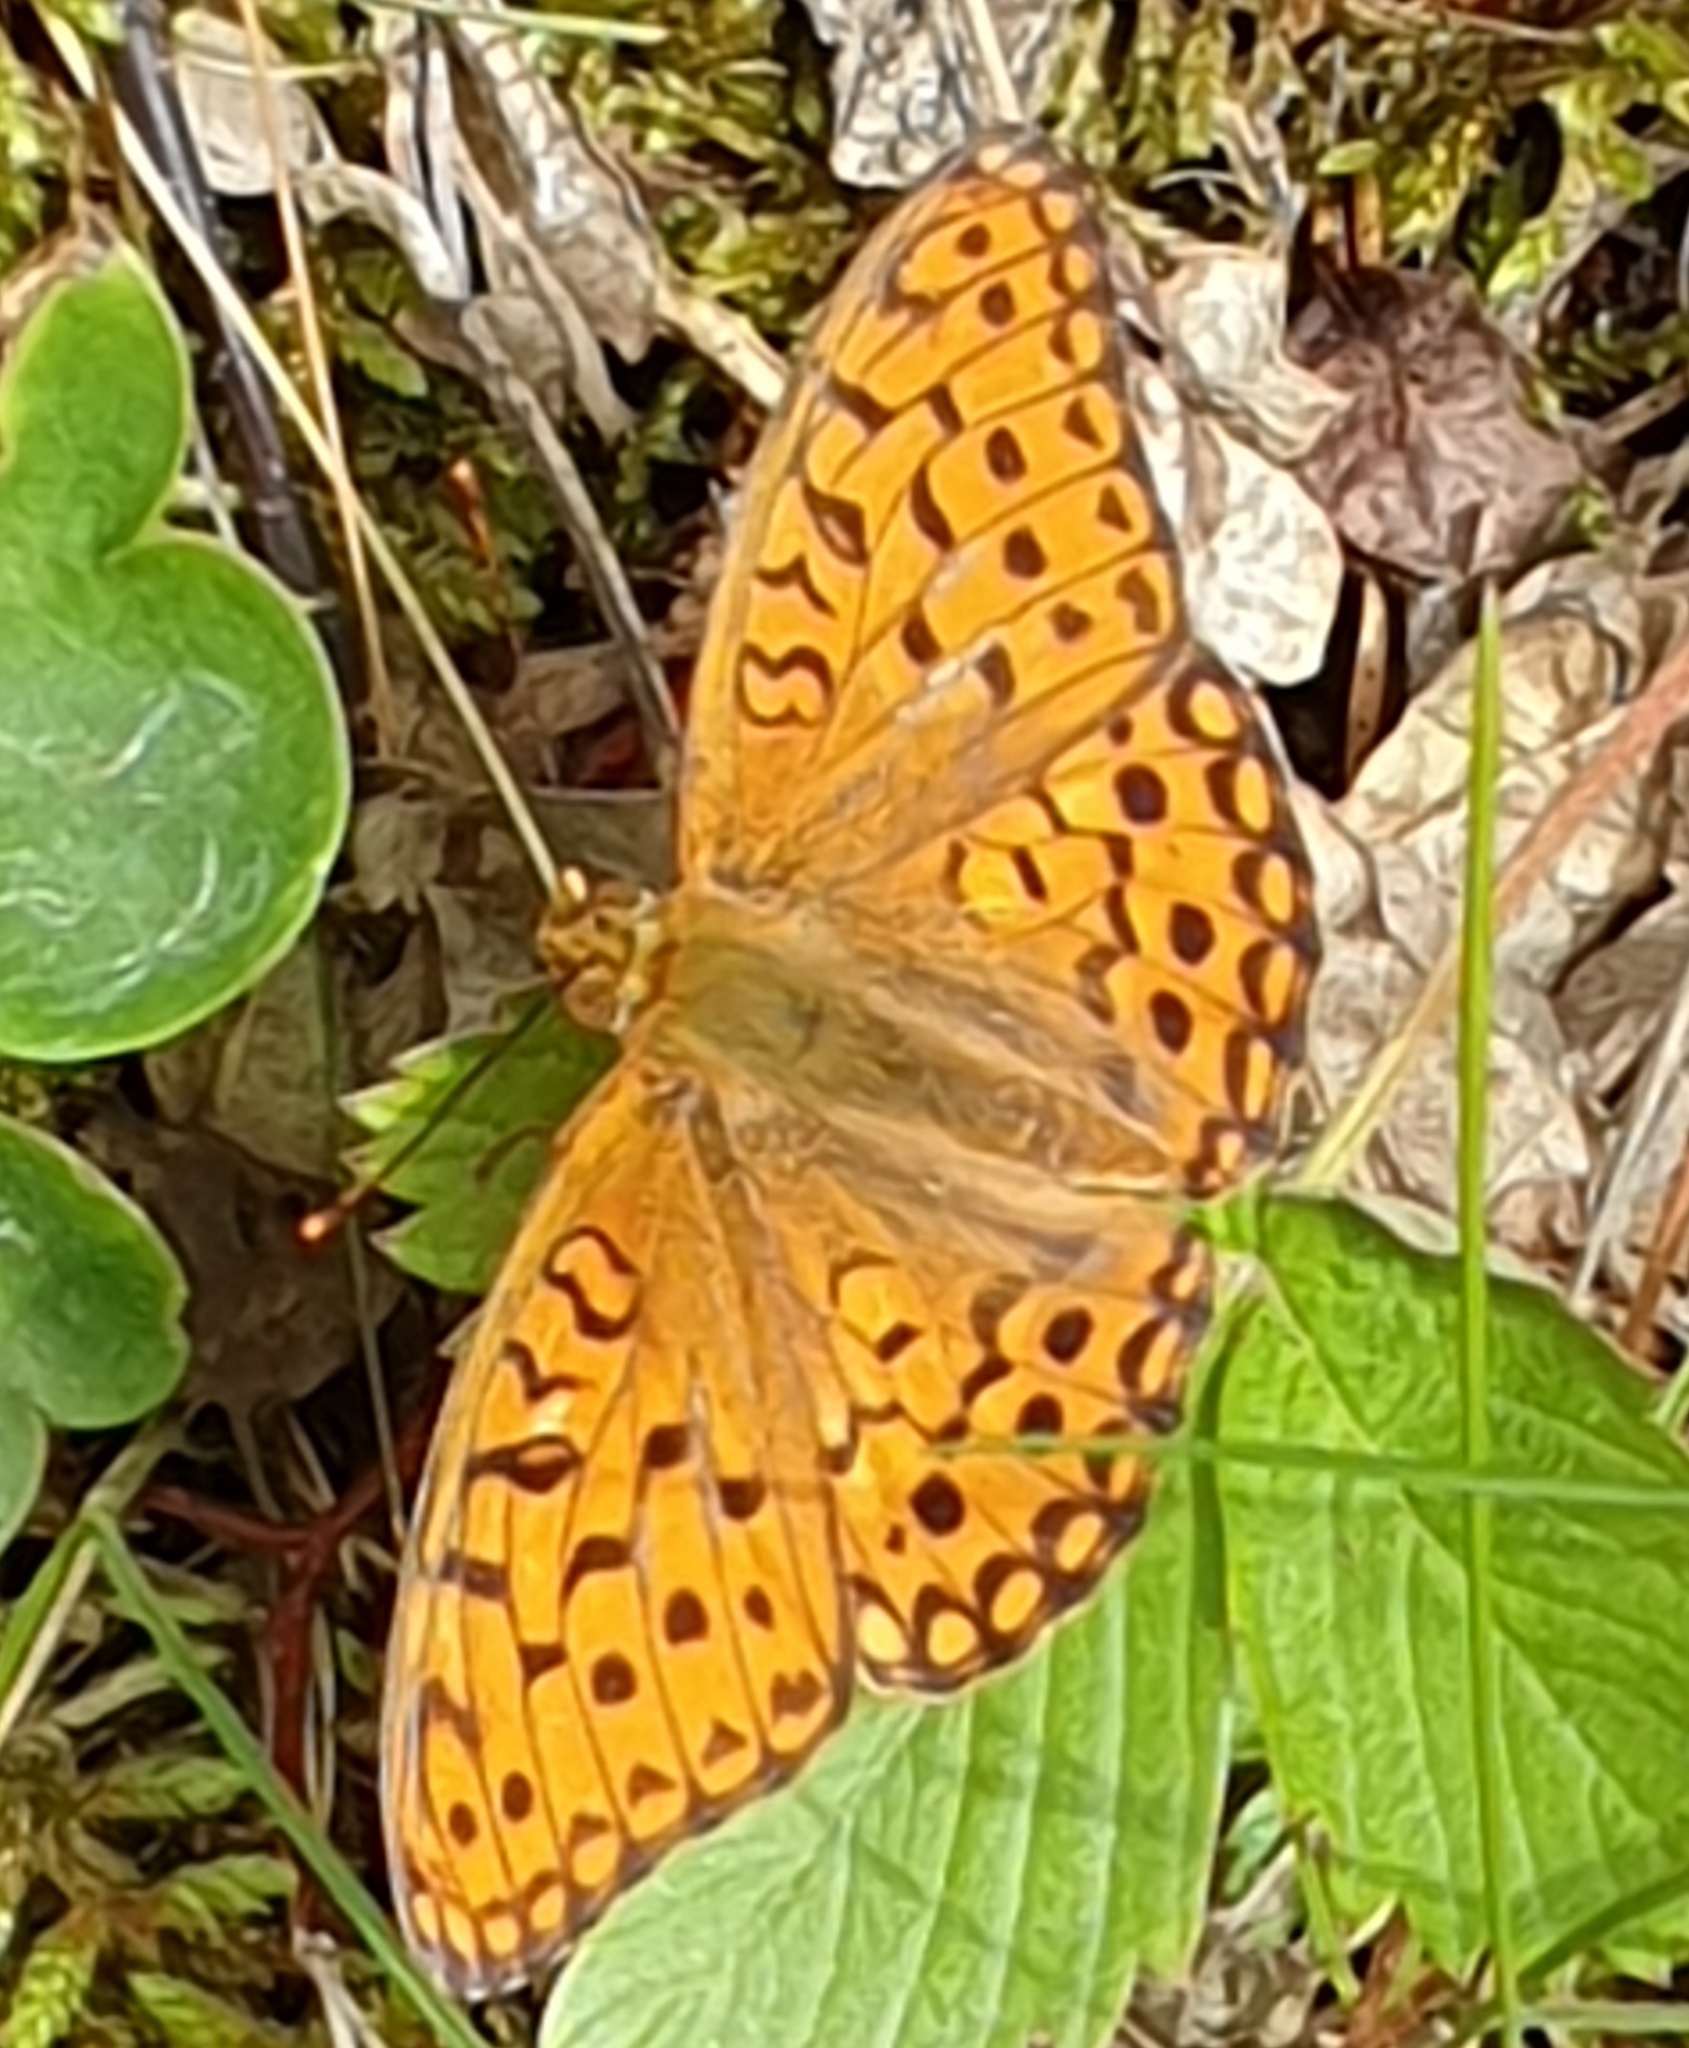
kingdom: Animalia
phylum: Arthropoda
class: Insecta
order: Lepidoptera
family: Nymphalidae
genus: Fabriciana
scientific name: Fabriciana adippe
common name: High brown fritillary
